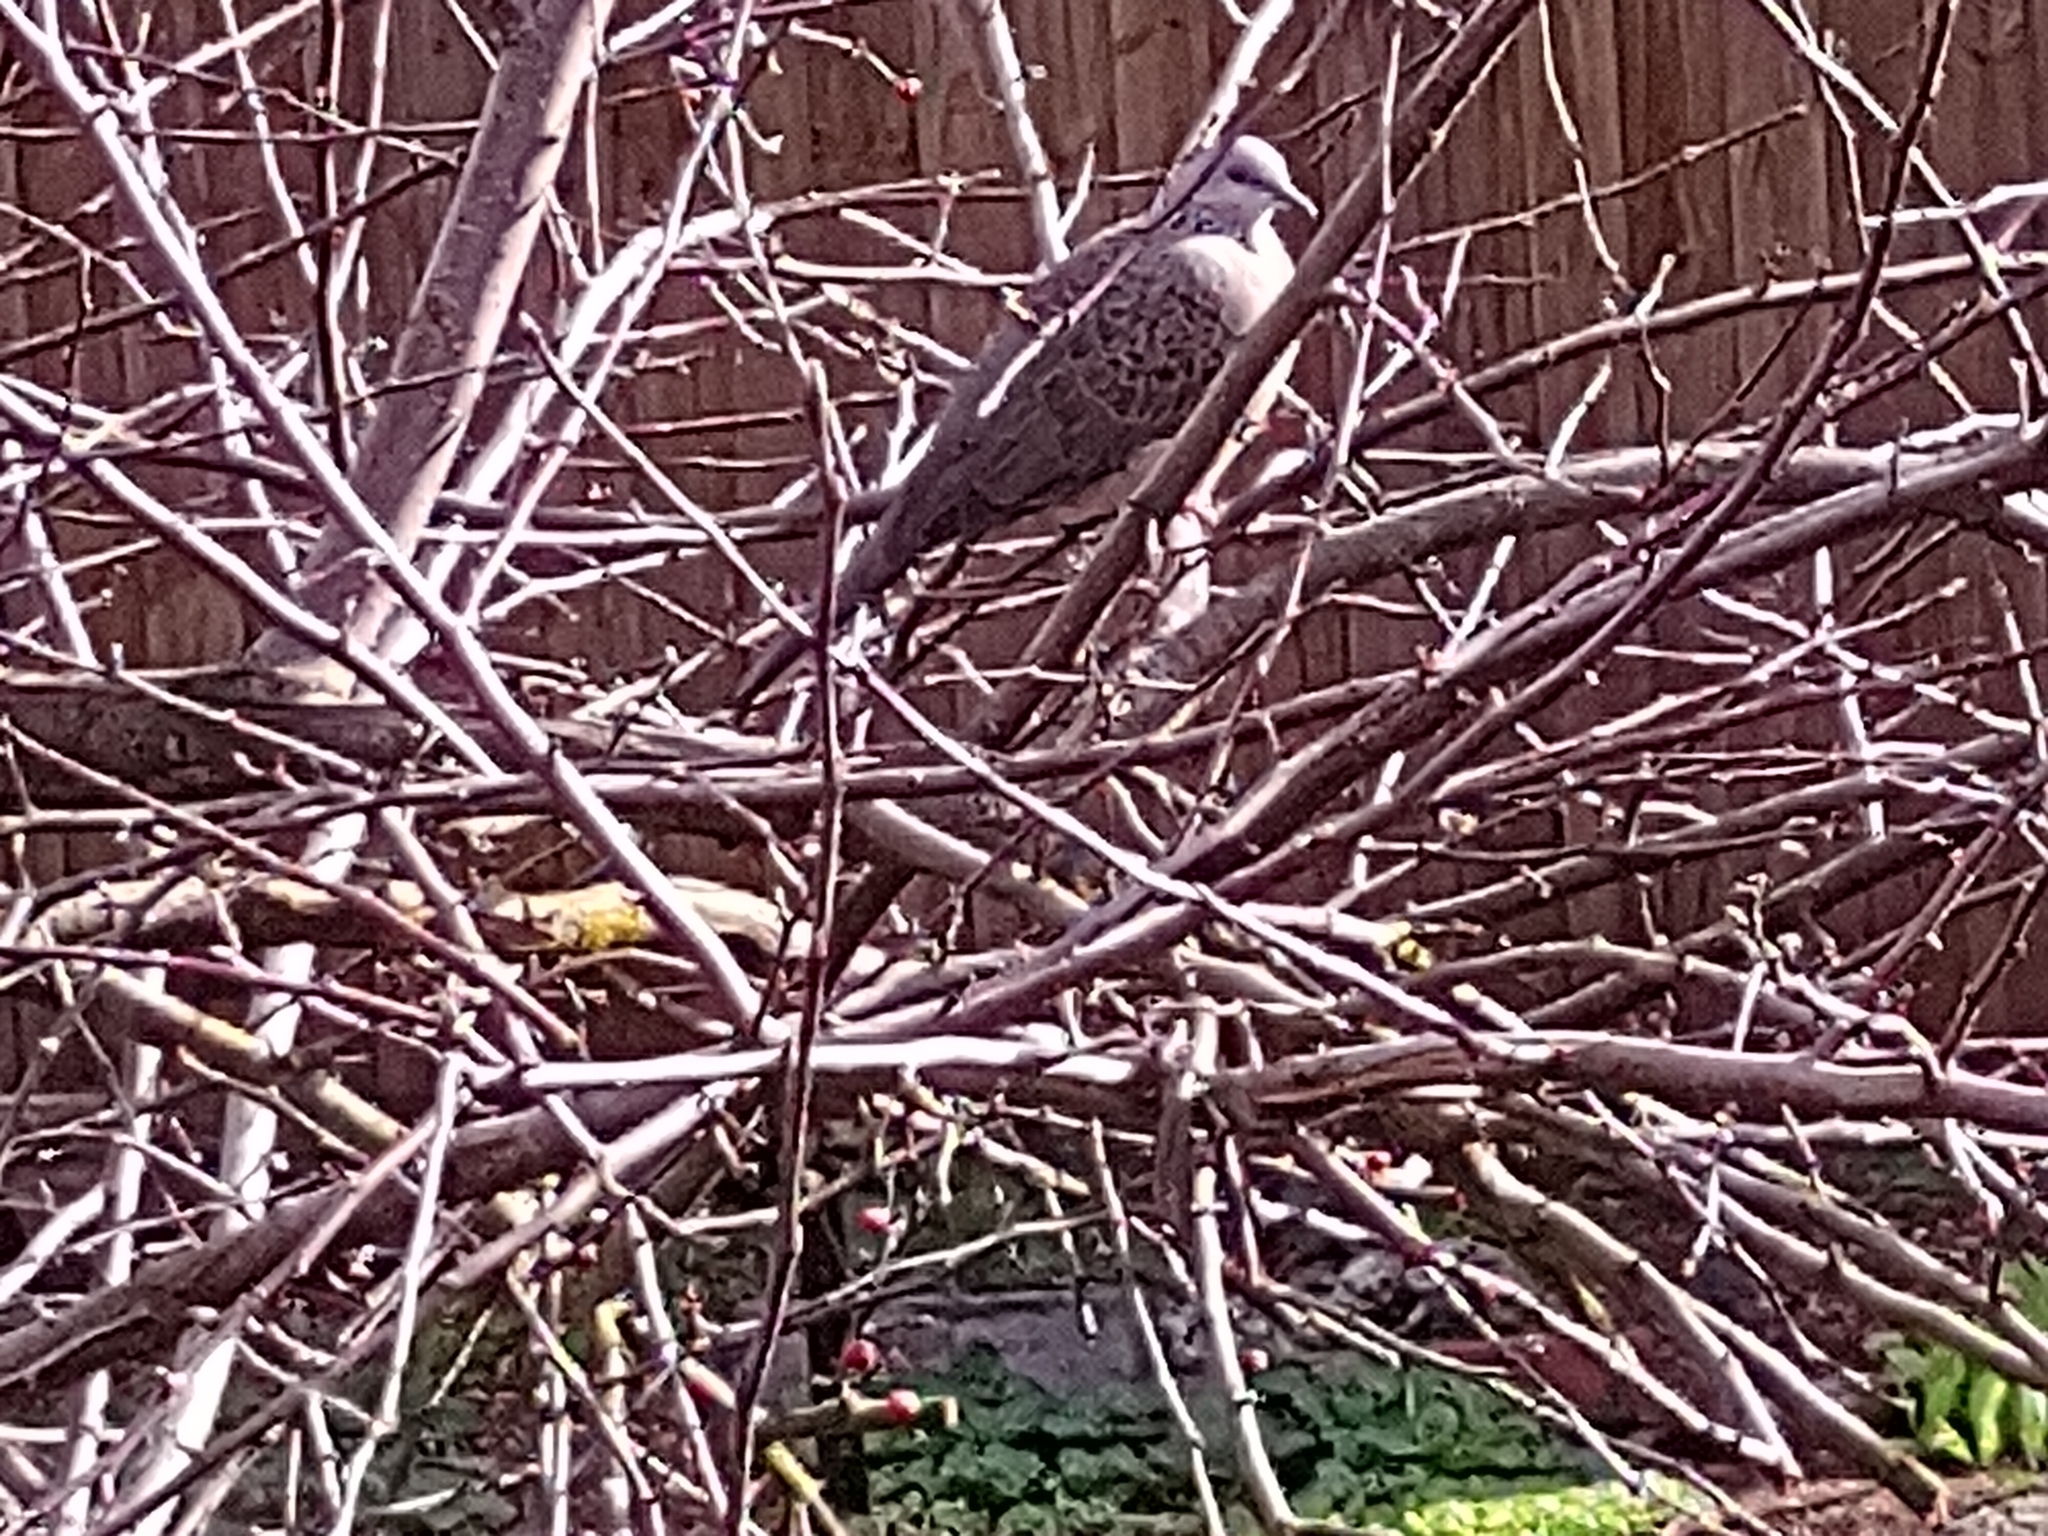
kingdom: Animalia
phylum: Chordata
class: Aves
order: Columbiformes
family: Columbidae
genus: Spilopelia
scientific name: Spilopelia chinensis
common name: Spotted dove
